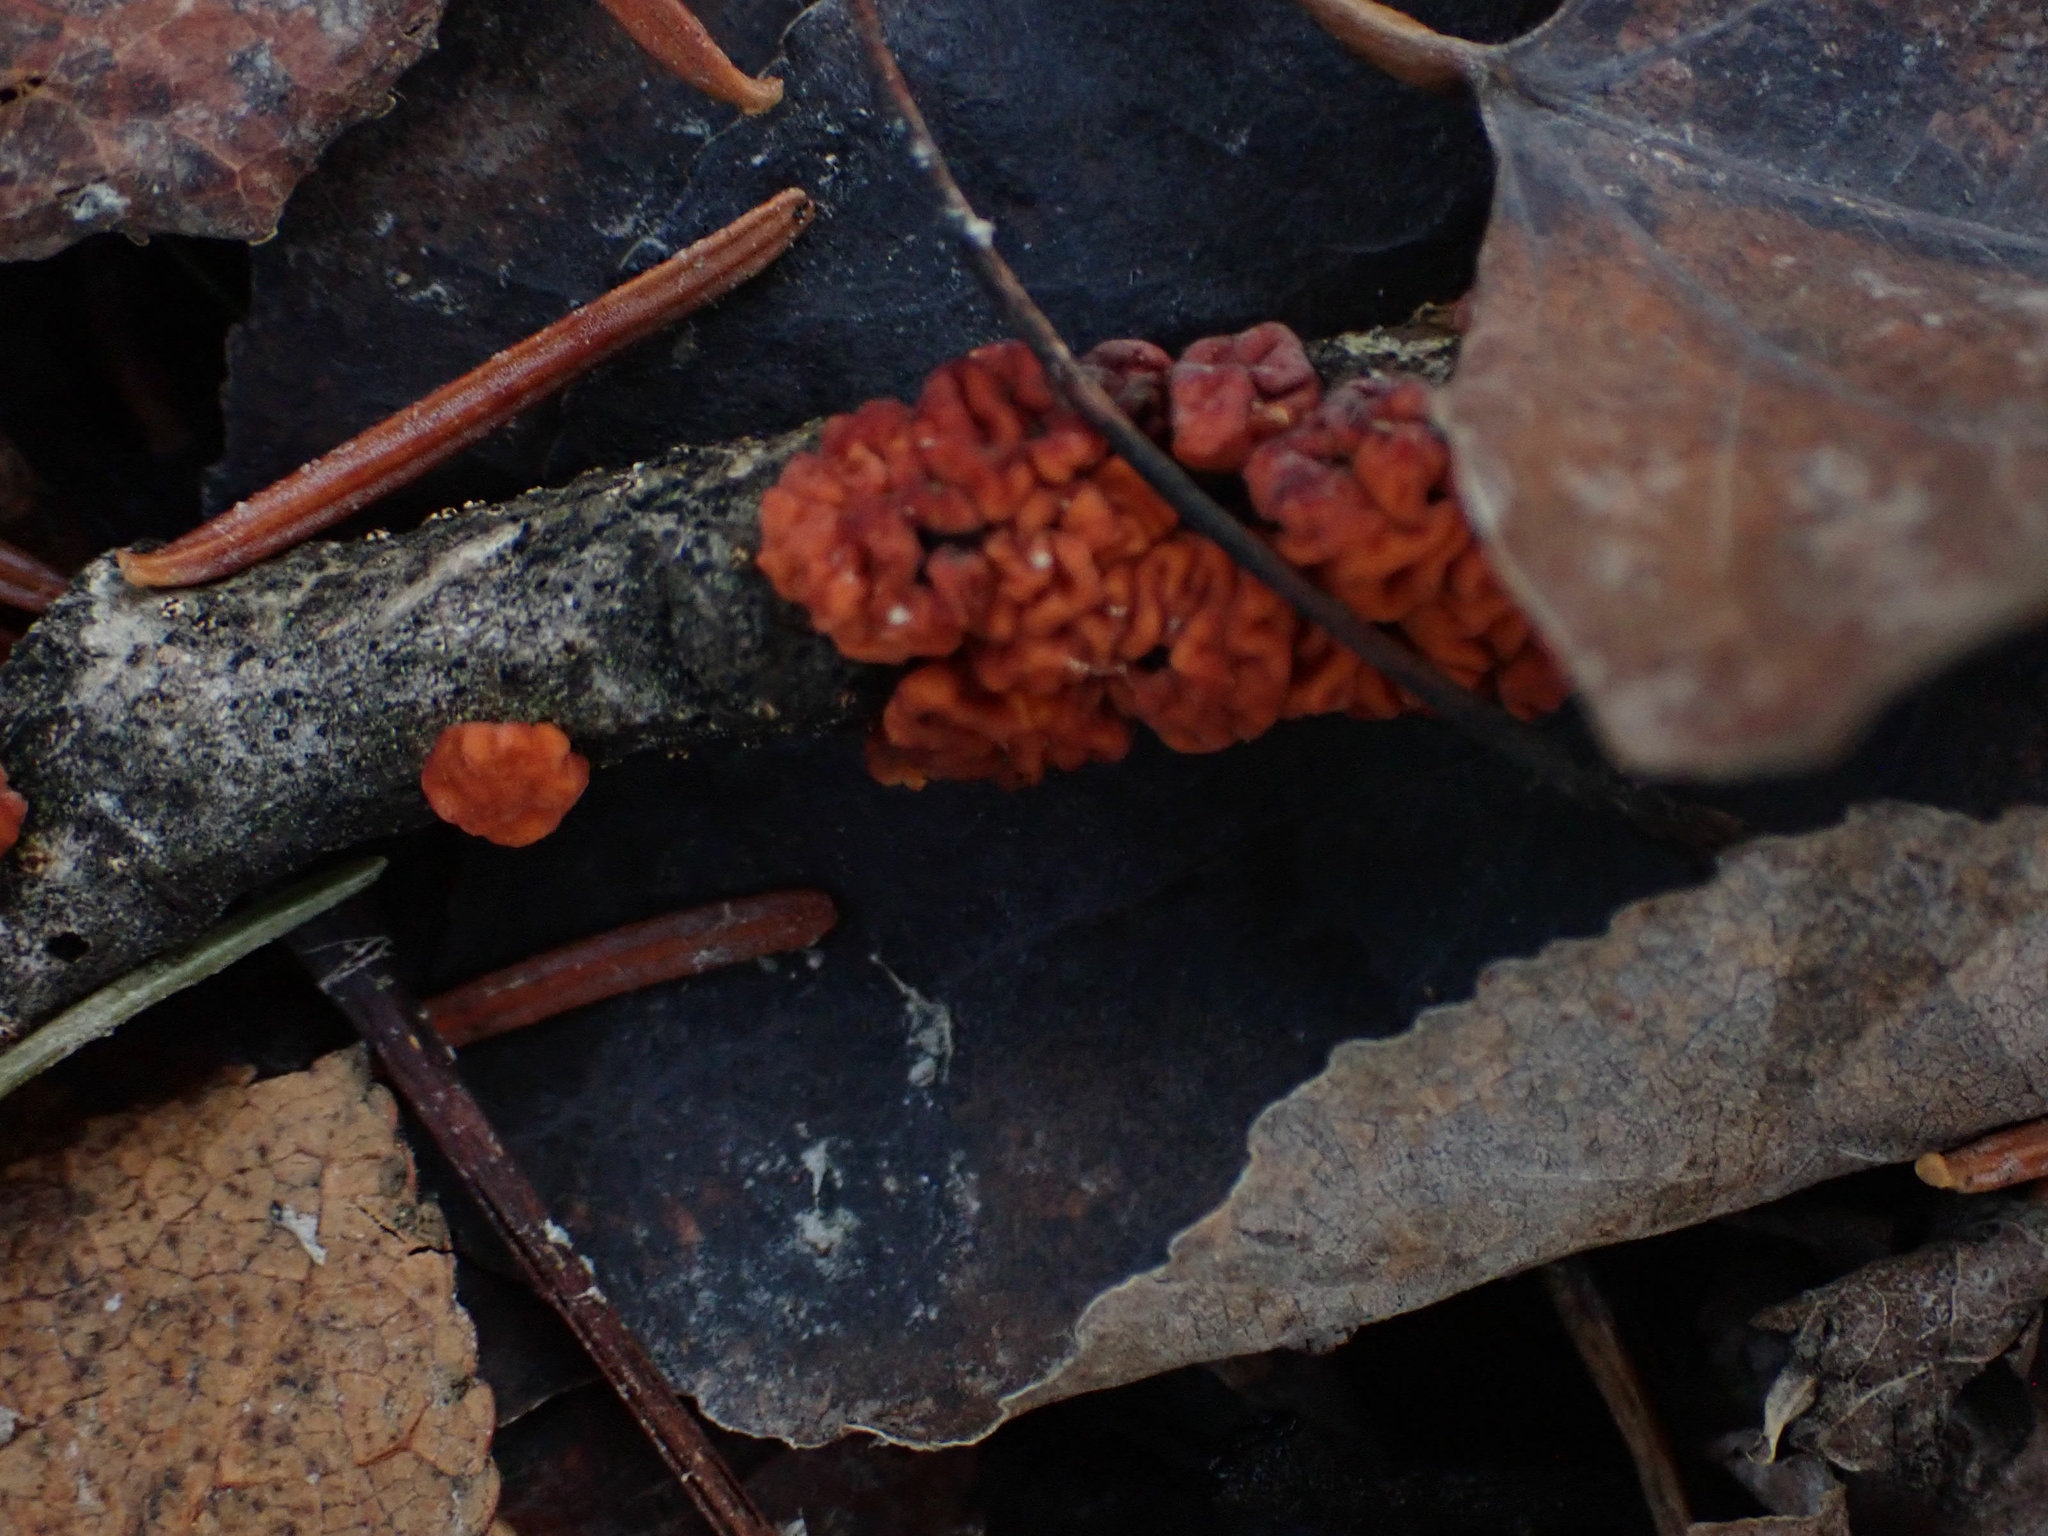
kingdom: Fungi
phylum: Basidiomycota
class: Agaricomycetes
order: Russulales
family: Peniophoraceae
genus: Peniophora
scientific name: Peniophora rufa
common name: Red tree brain fungus
